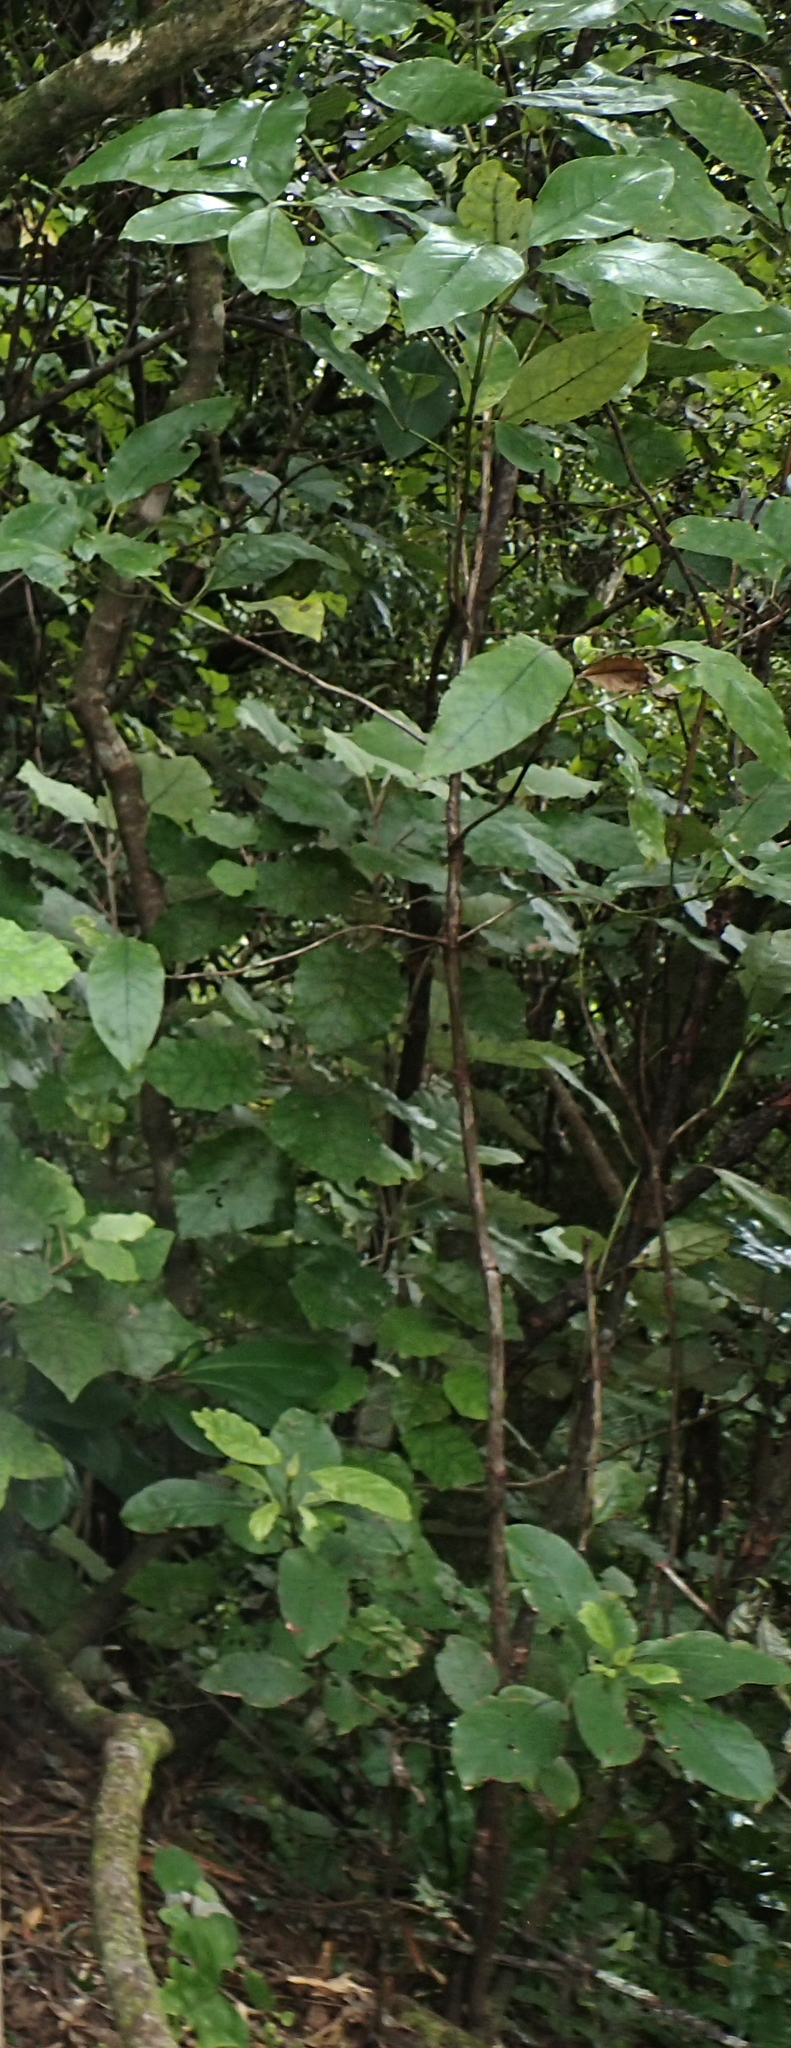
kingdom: Plantae
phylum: Tracheophyta
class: Magnoliopsida
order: Gentianales
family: Rubiaceae
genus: Coprosma
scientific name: Coprosma autumnalis
